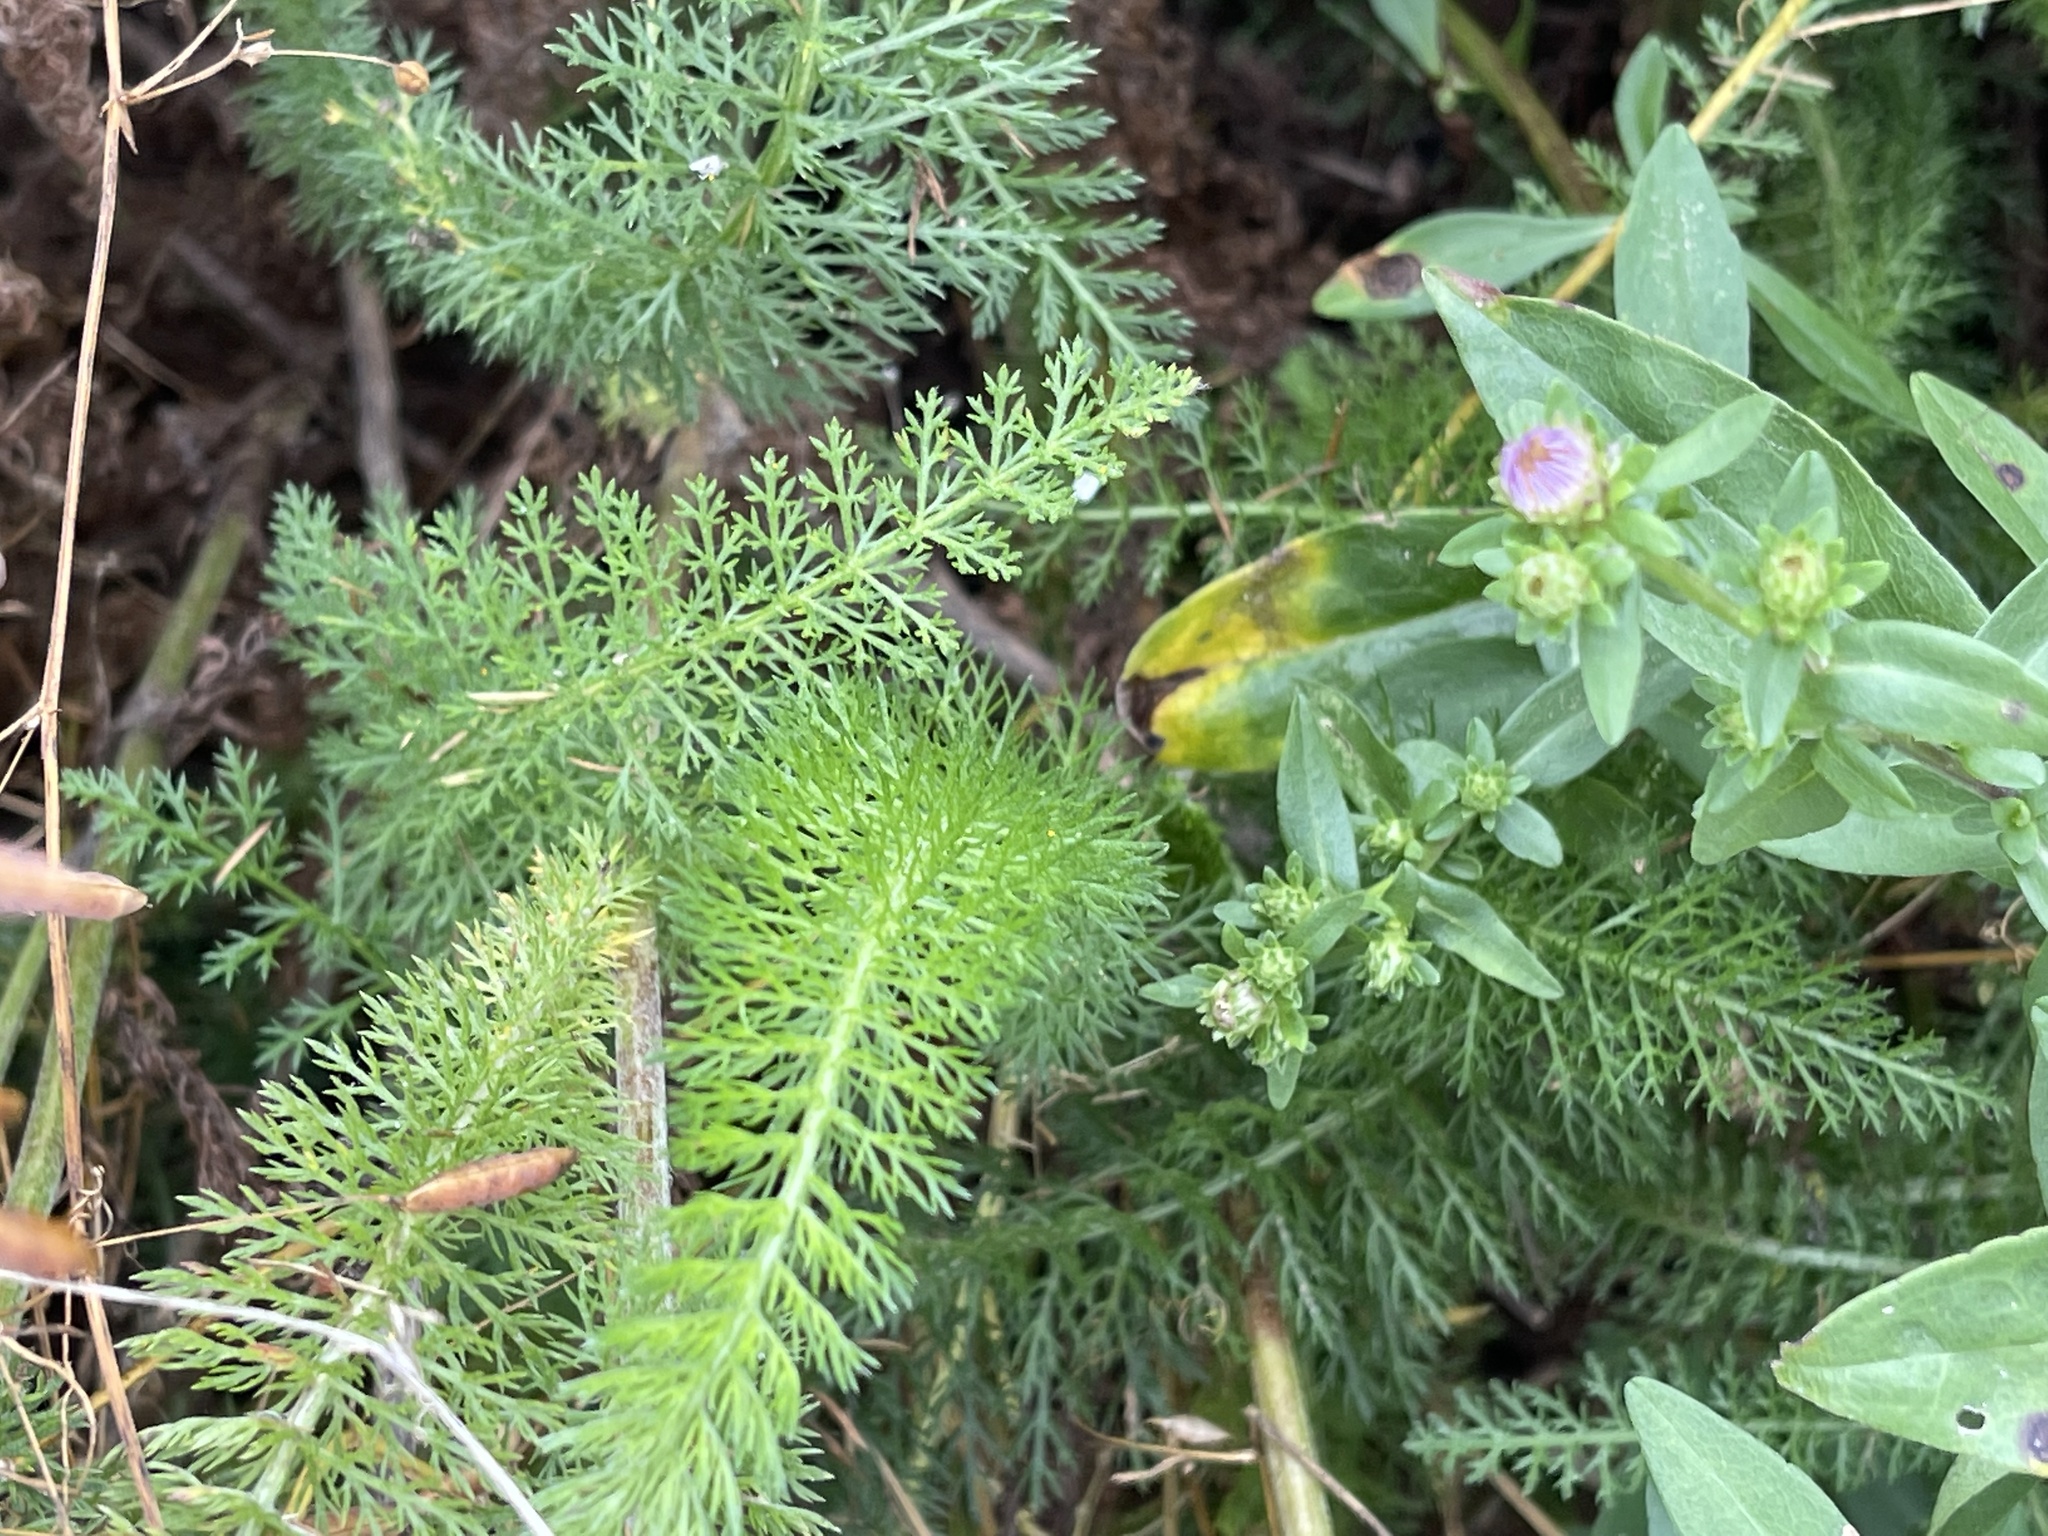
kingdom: Plantae
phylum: Tracheophyta
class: Magnoliopsida
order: Asterales
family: Asteraceae
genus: Achillea
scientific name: Achillea millefolium
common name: Yarrow
